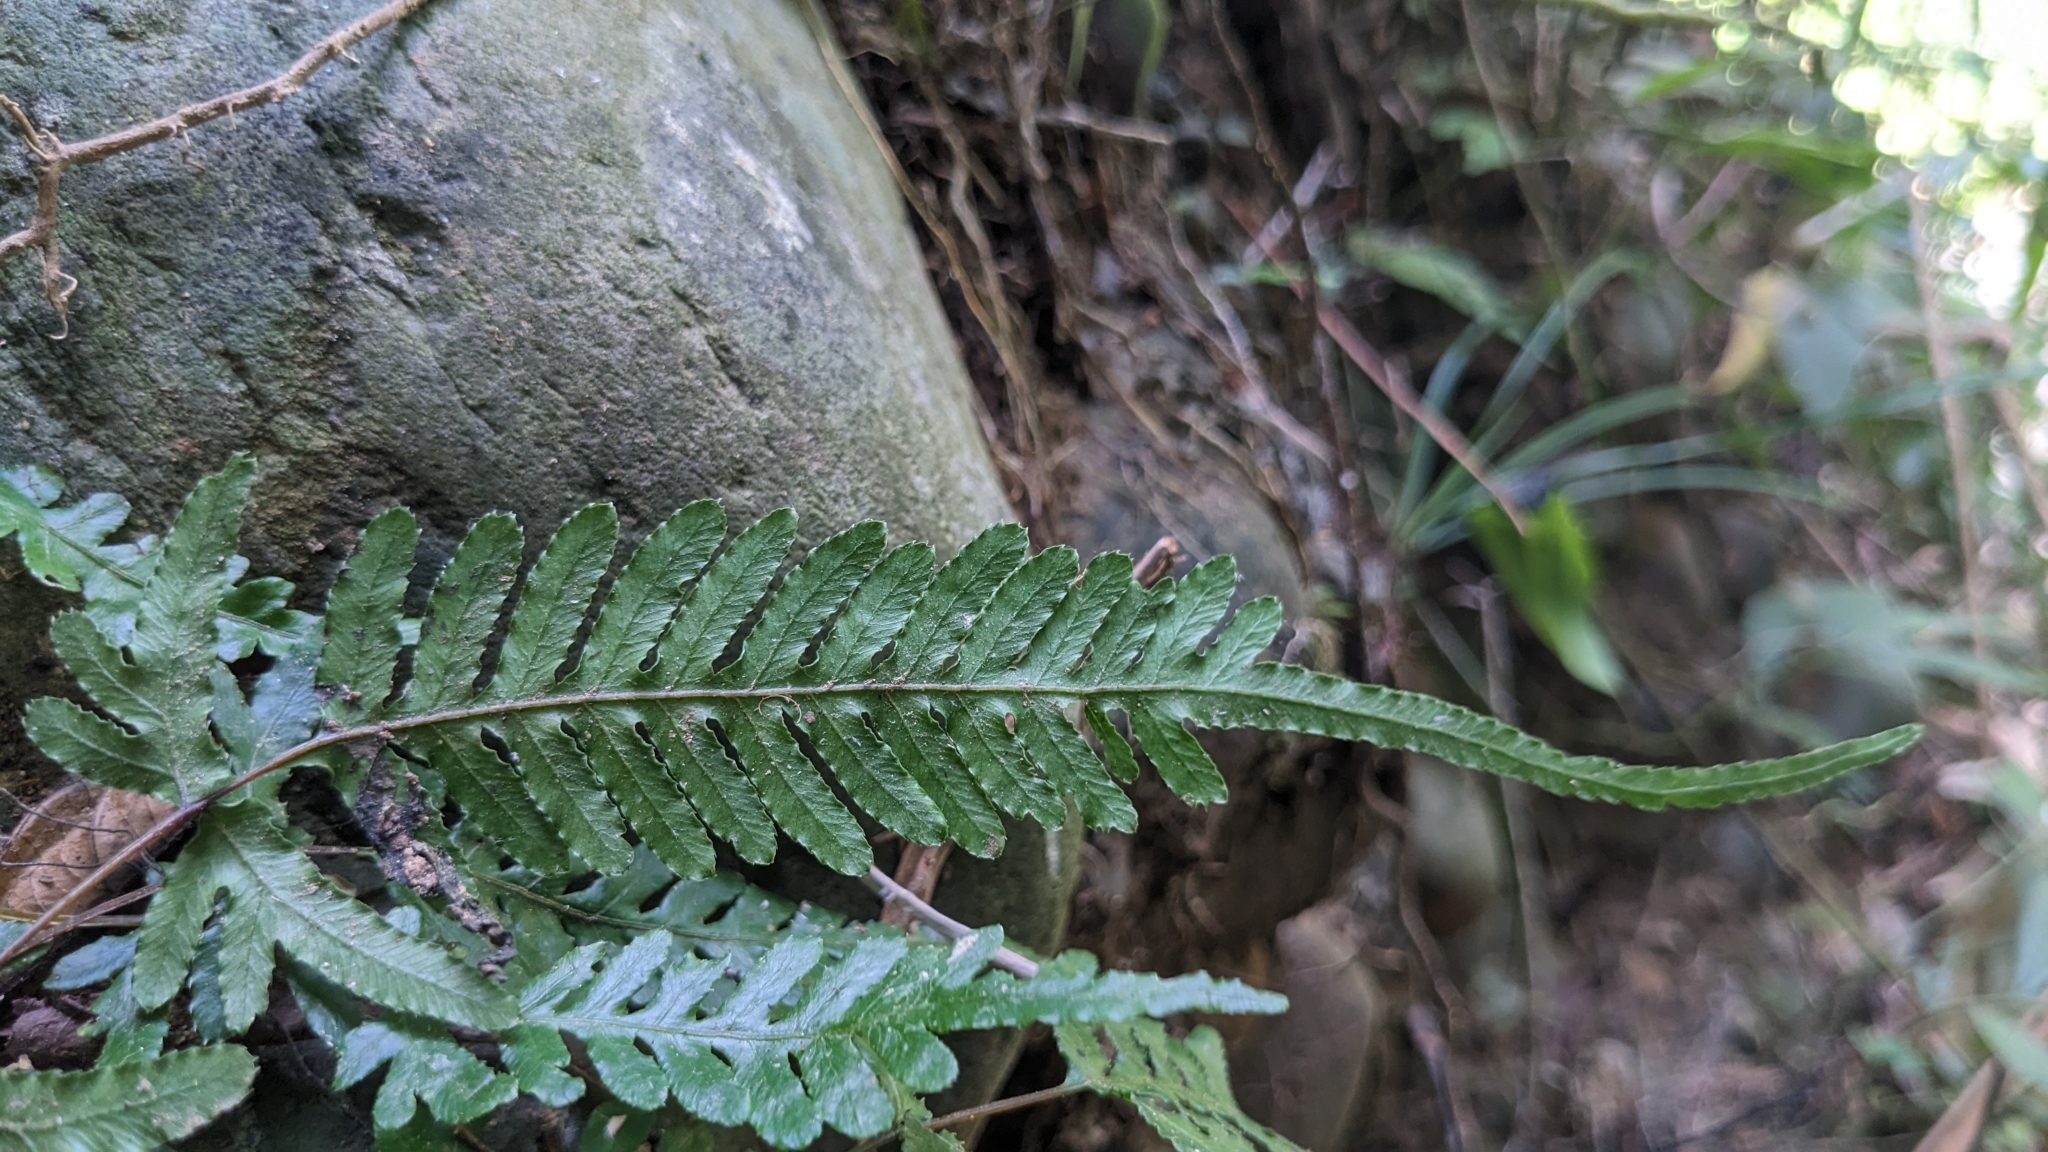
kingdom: Plantae
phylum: Tracheophyta
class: Polypodiopsida
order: Polypodiales
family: Pteridaceae
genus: Pteris
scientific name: Pteris dispar
